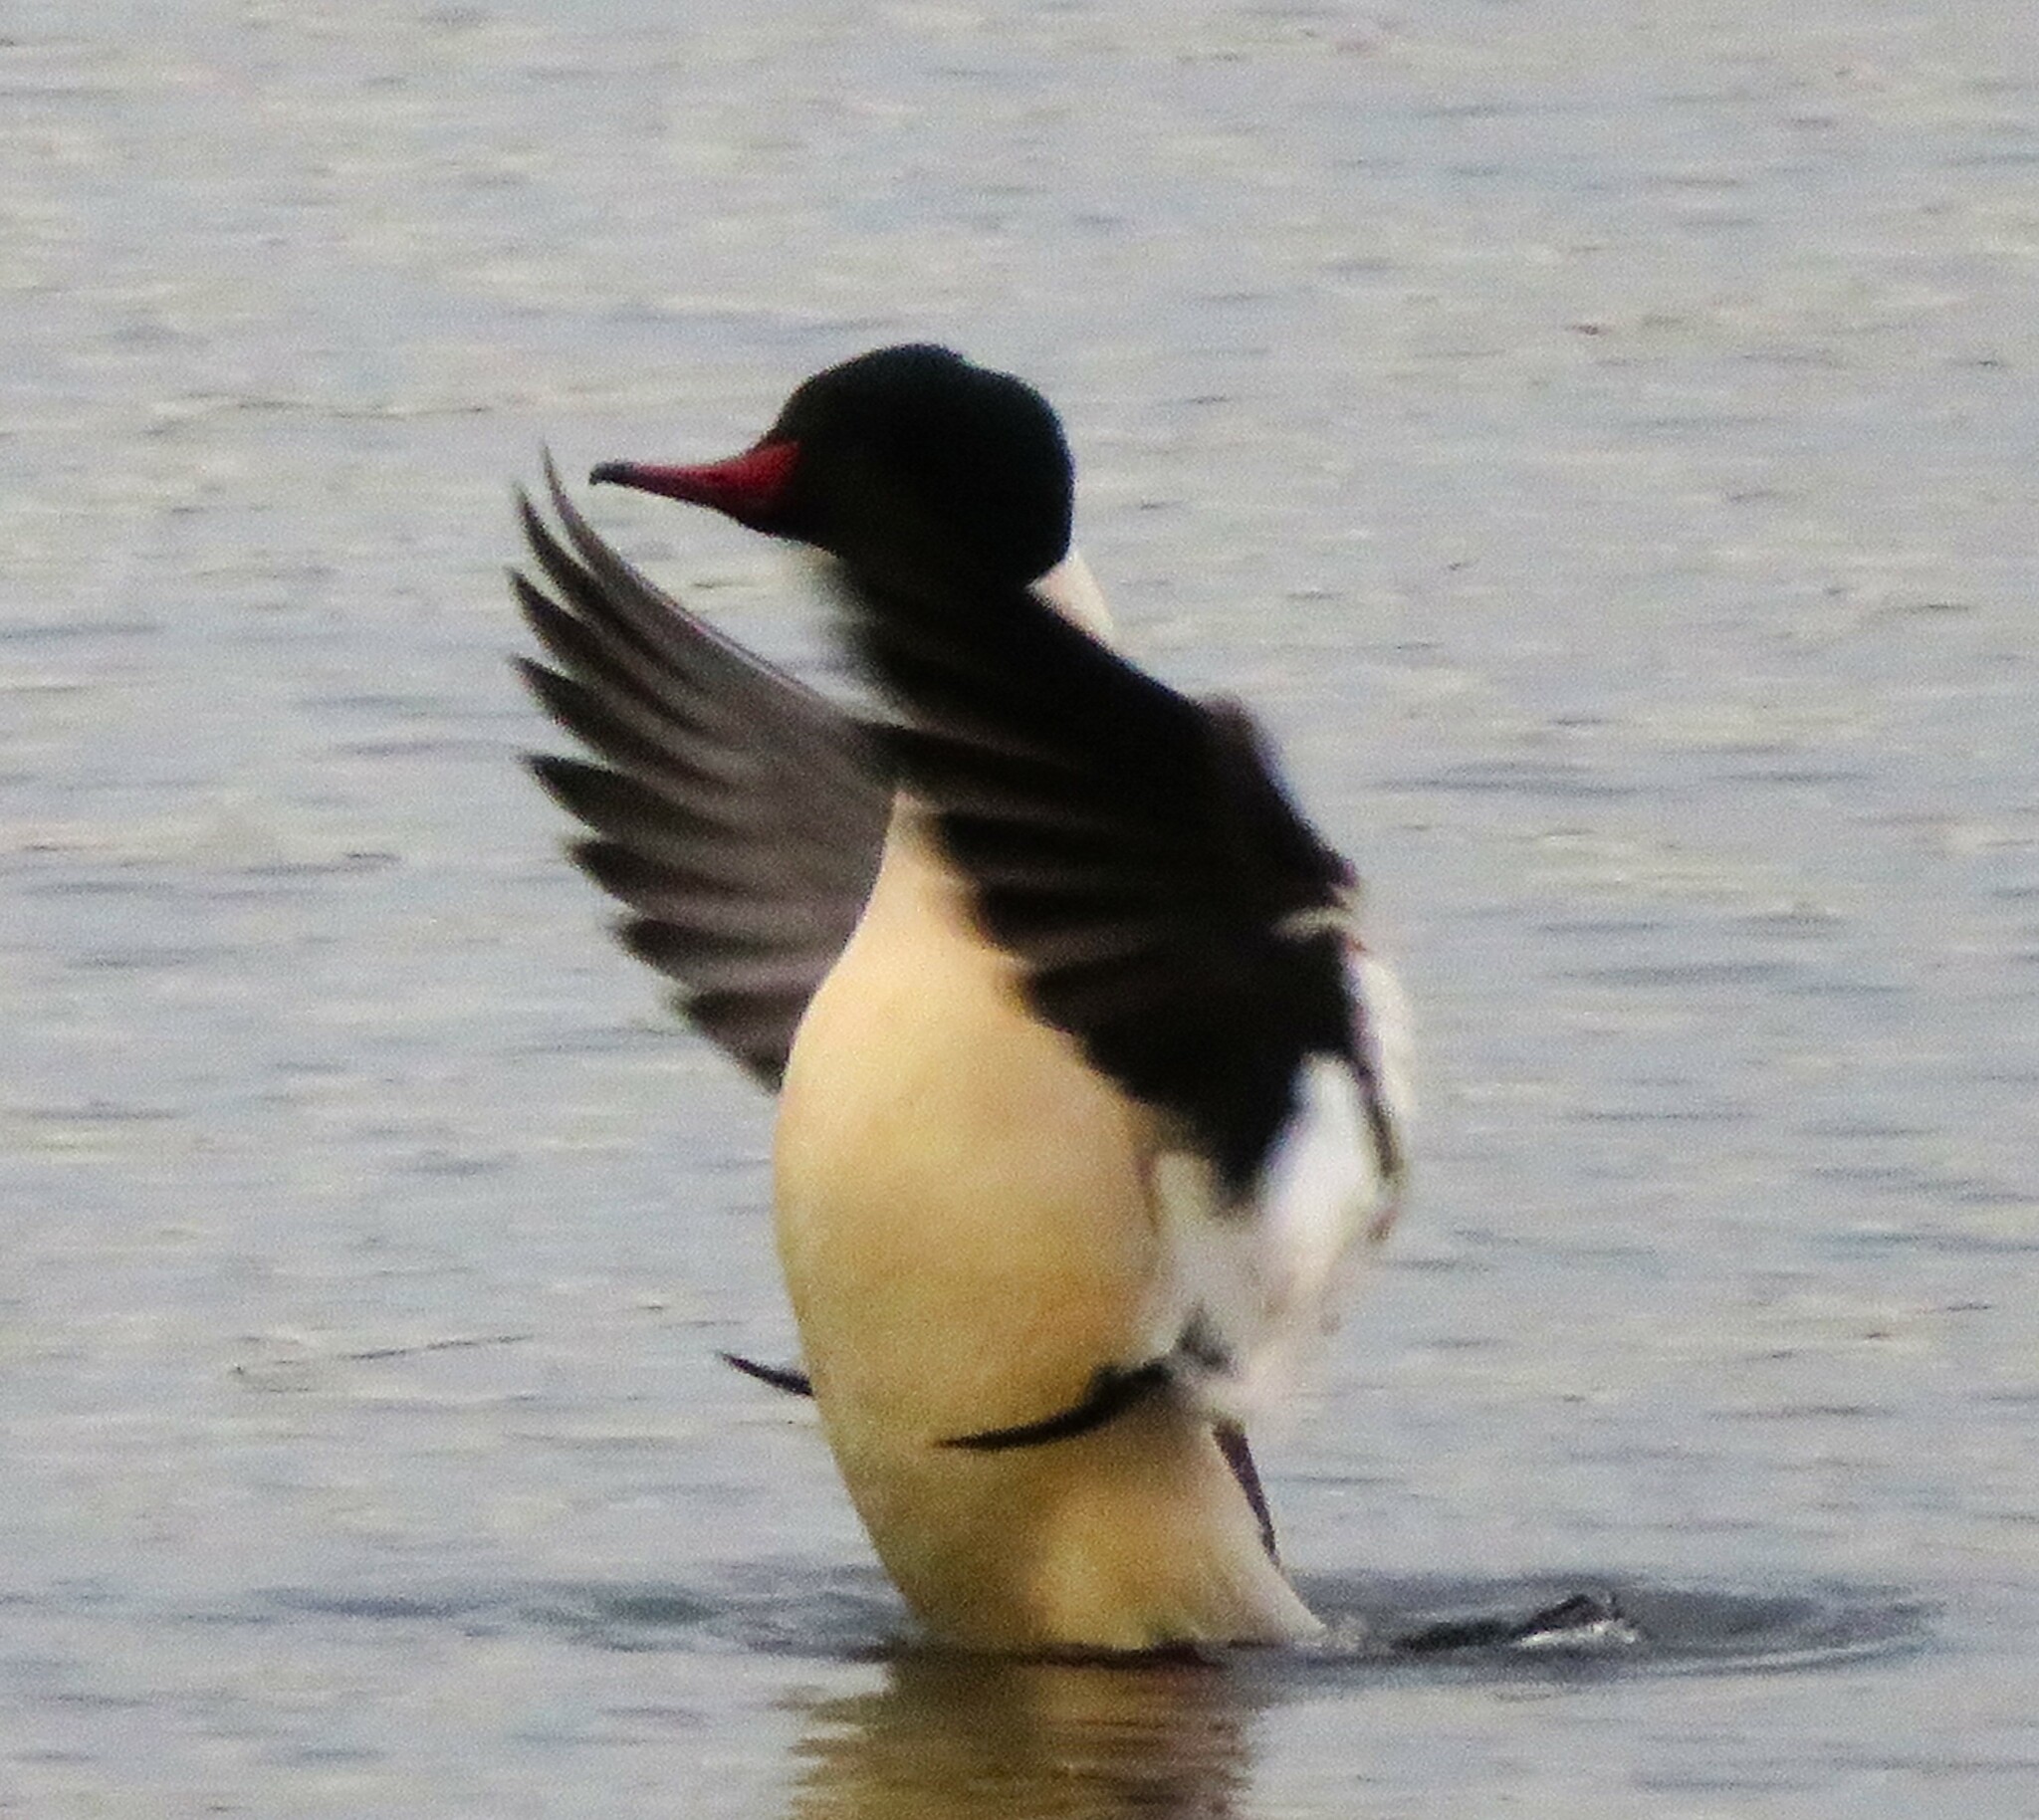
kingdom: Animalia
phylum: Chordata
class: Aves
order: Anseriformes
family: Anatidae
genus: Mergus
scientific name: Mergus merganser
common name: Common merganser
